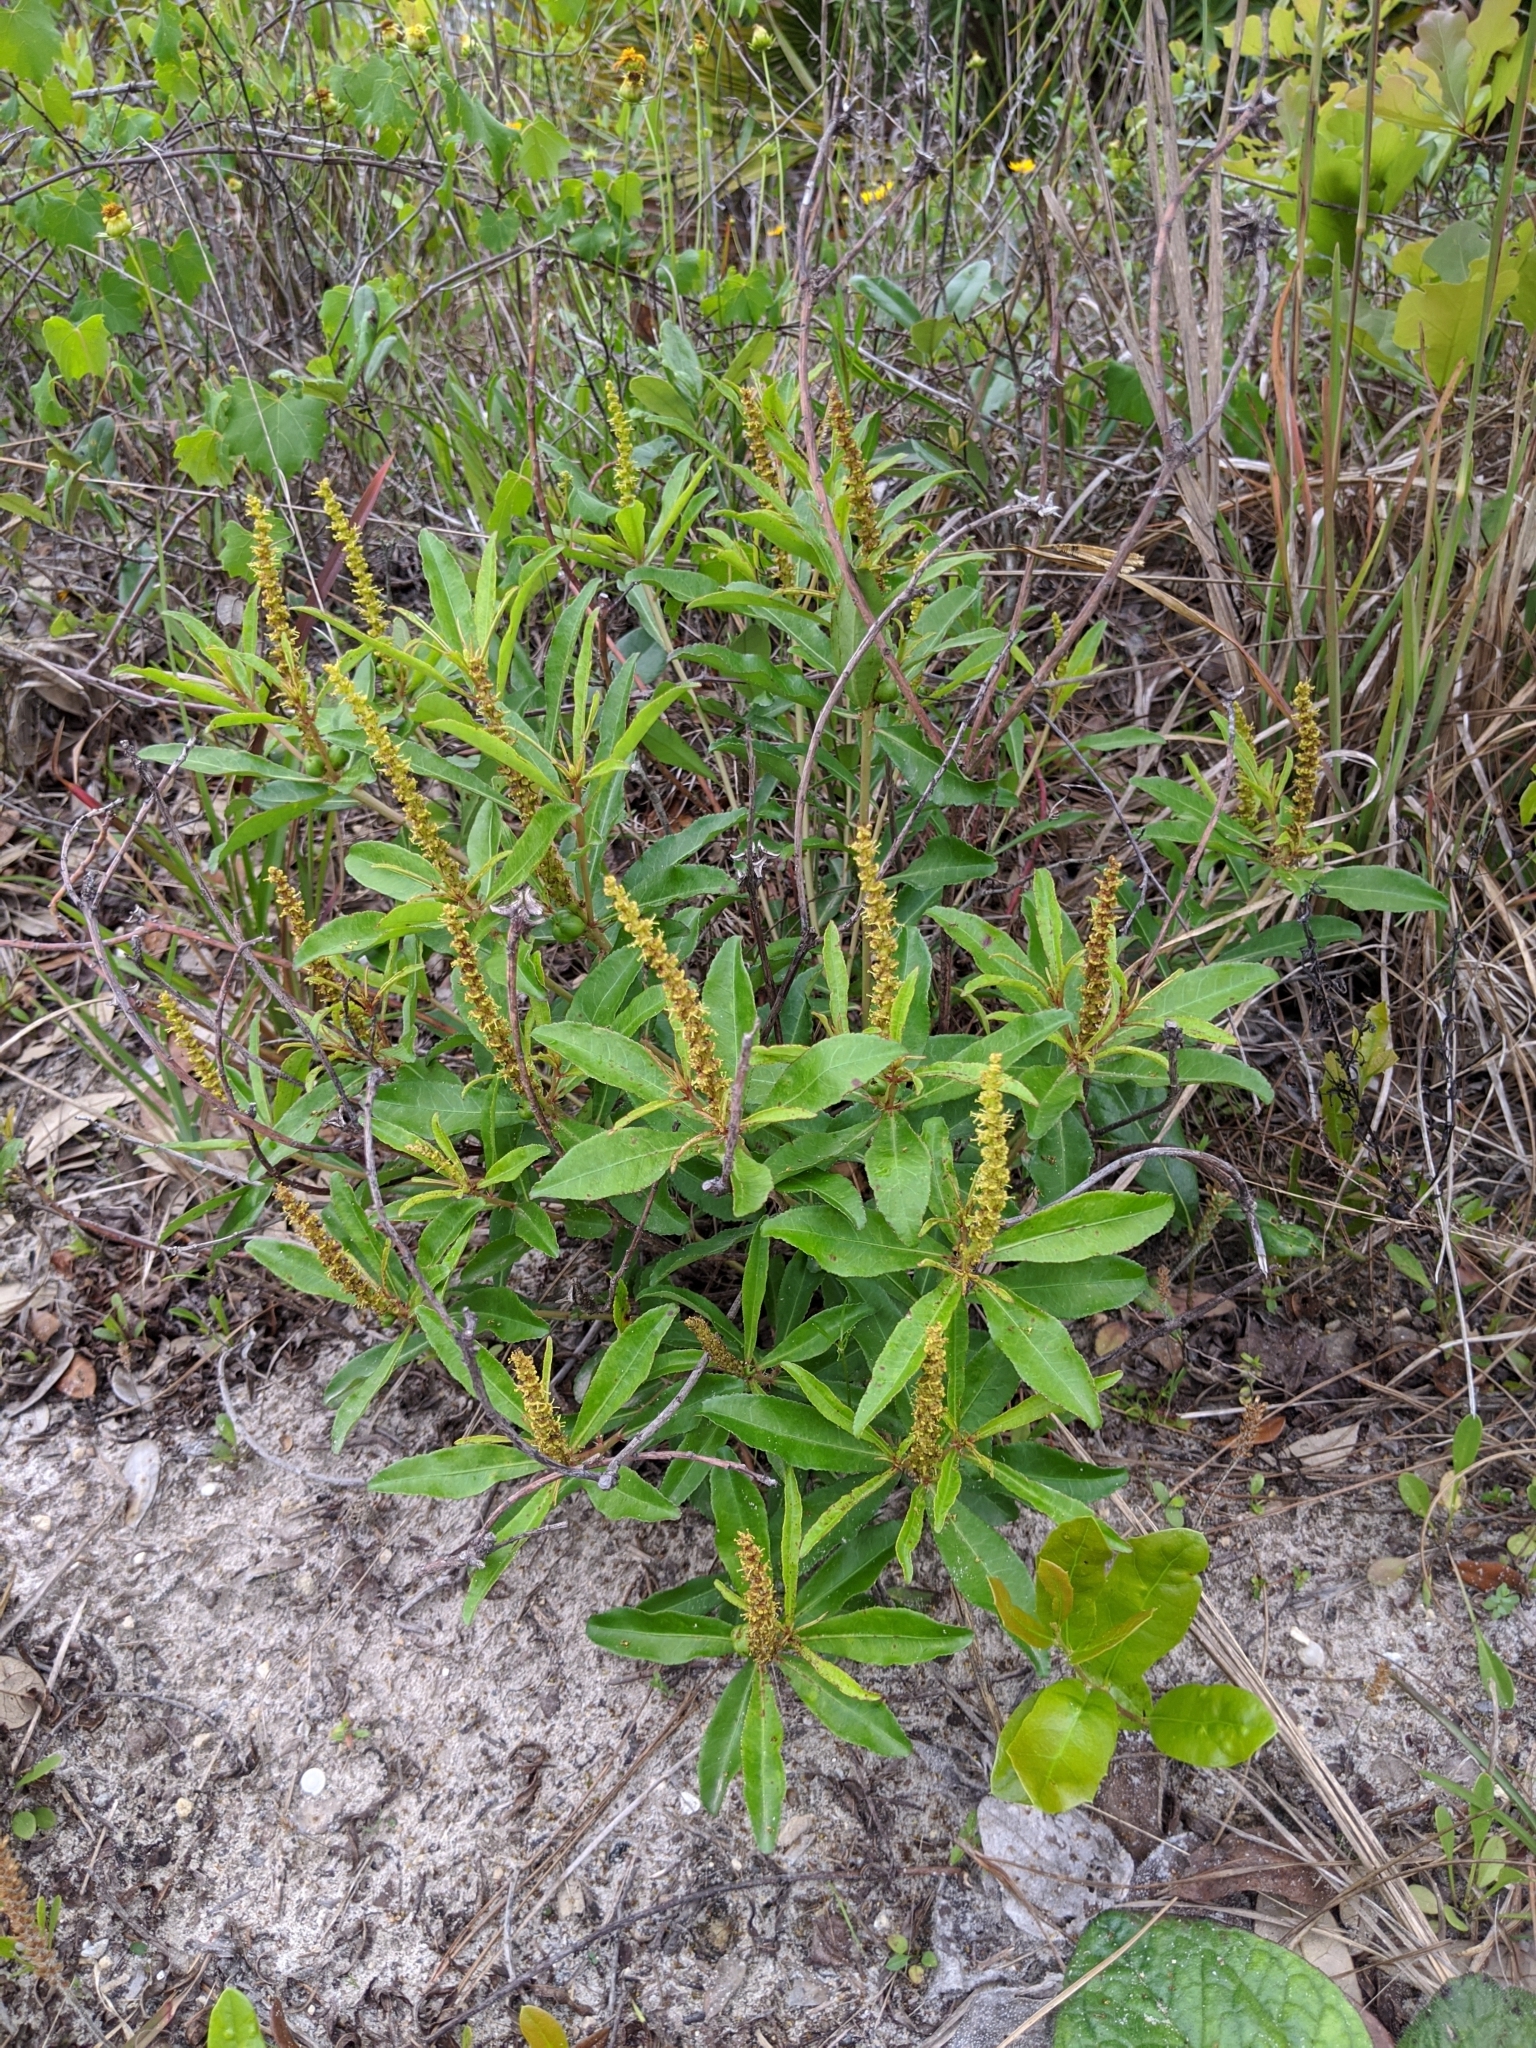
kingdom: Plantae
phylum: Tracheophyta
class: Magnoliopsida
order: Malpighiales
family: Euphorbiaceae
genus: Stillingia
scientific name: Stillingia sylvatica
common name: Queen's-delight
